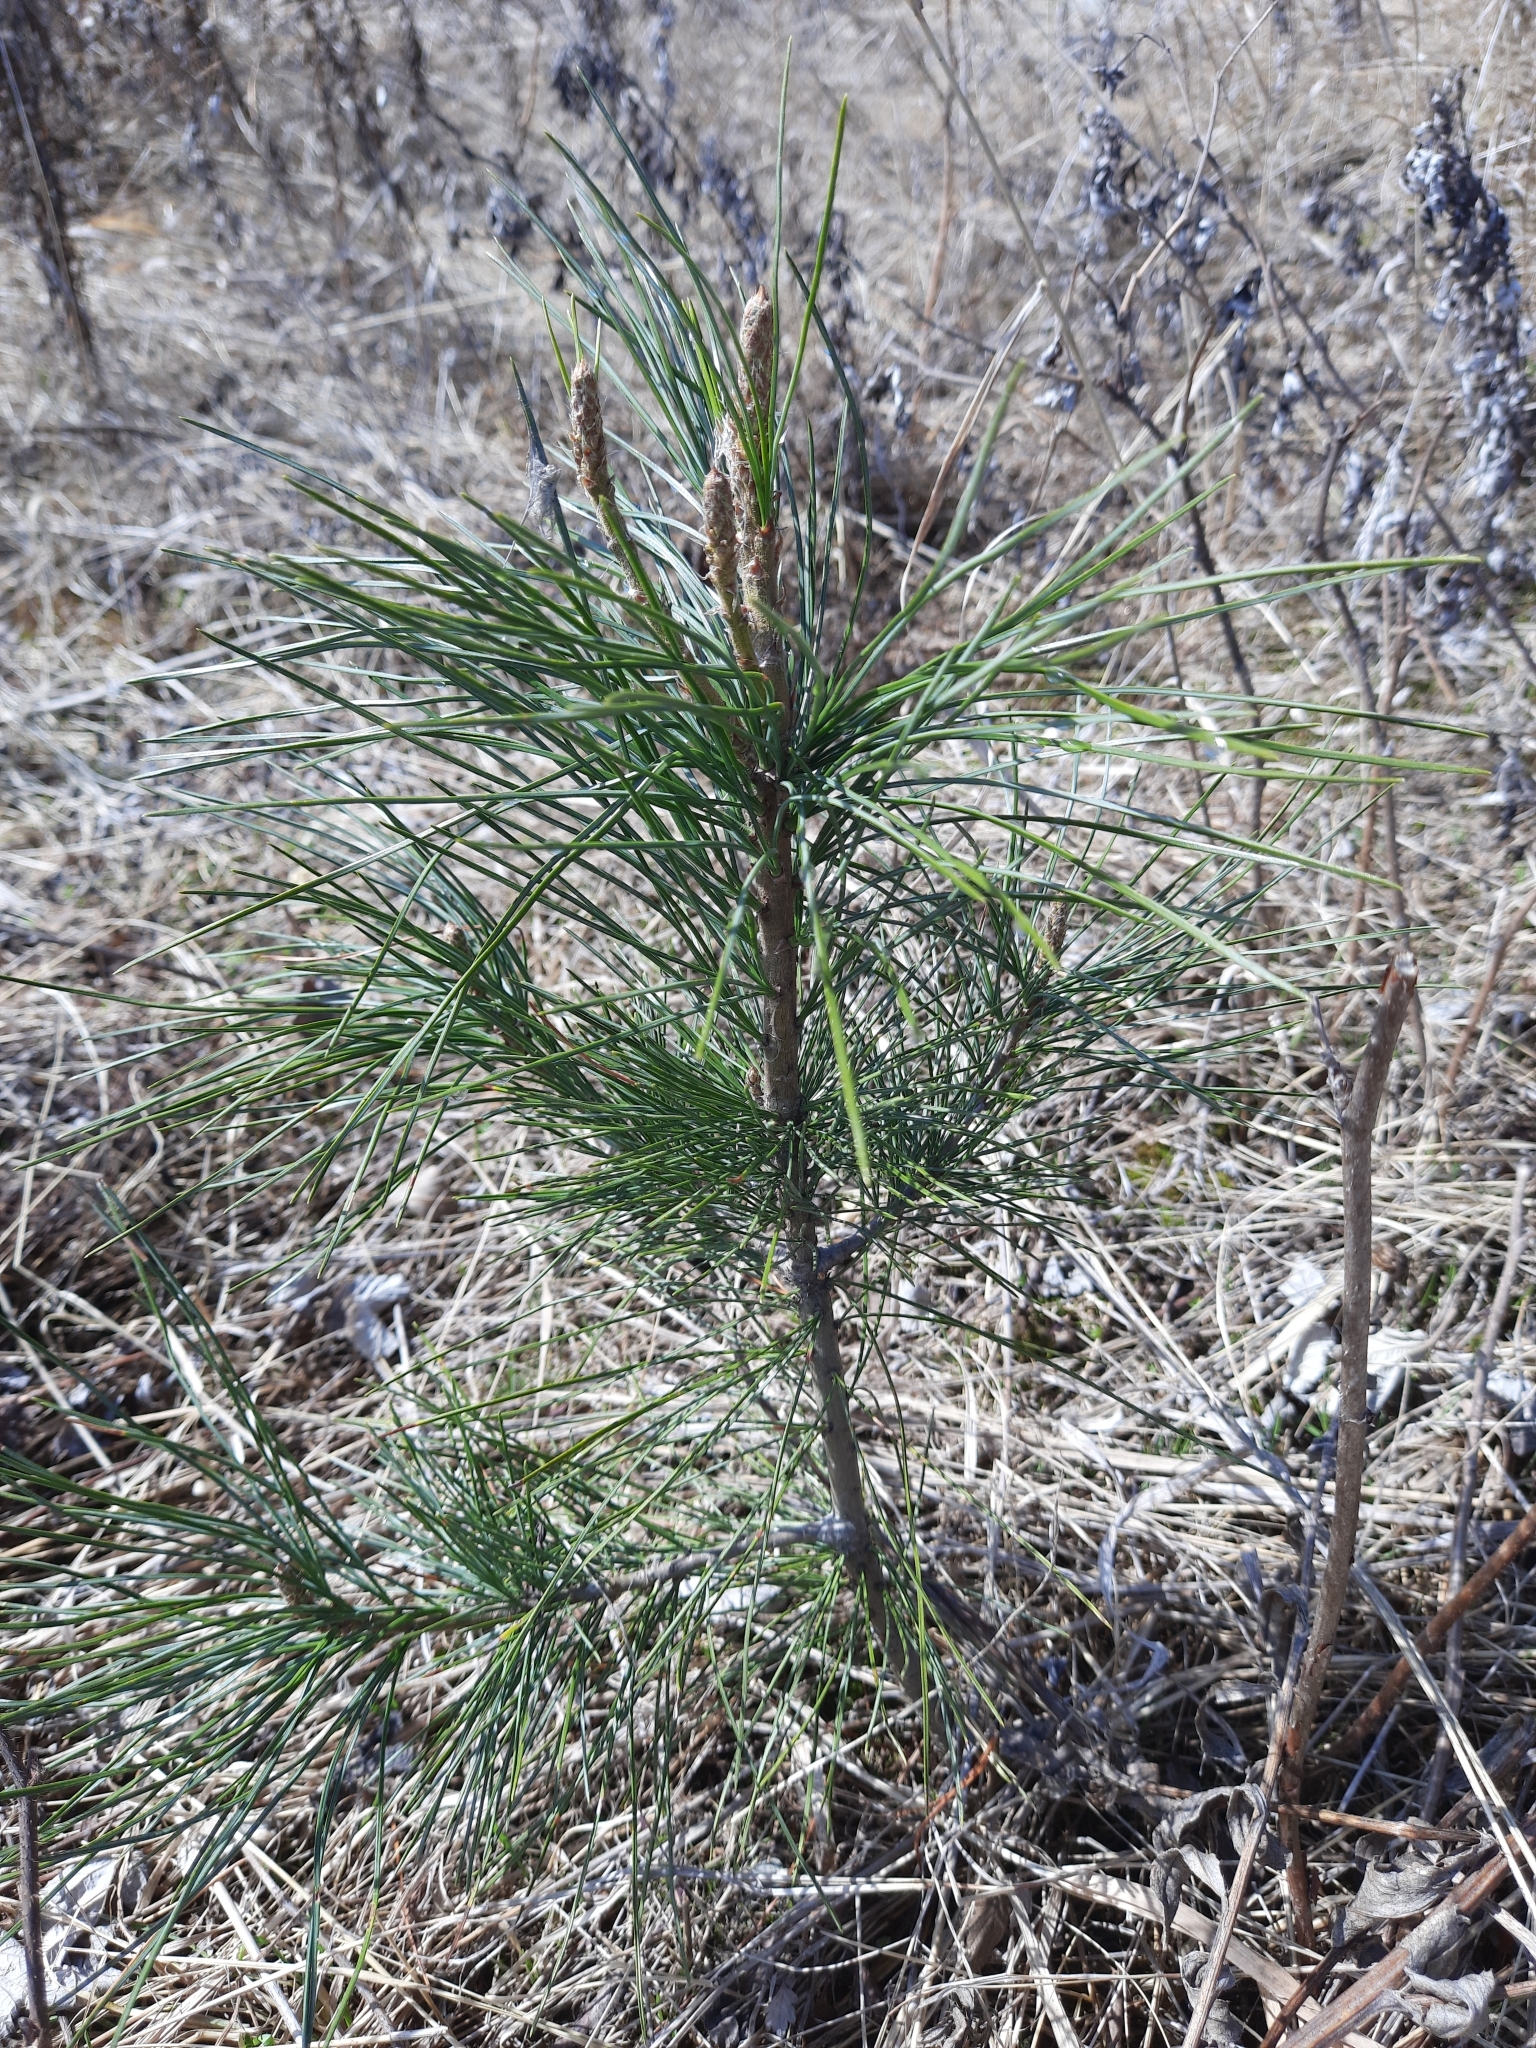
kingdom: Plantae
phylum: Tracheophyta
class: Pinopsida
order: Pinales
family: Pinaceae
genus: Pinus
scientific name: Pinus sibirica
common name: Siberian pine
